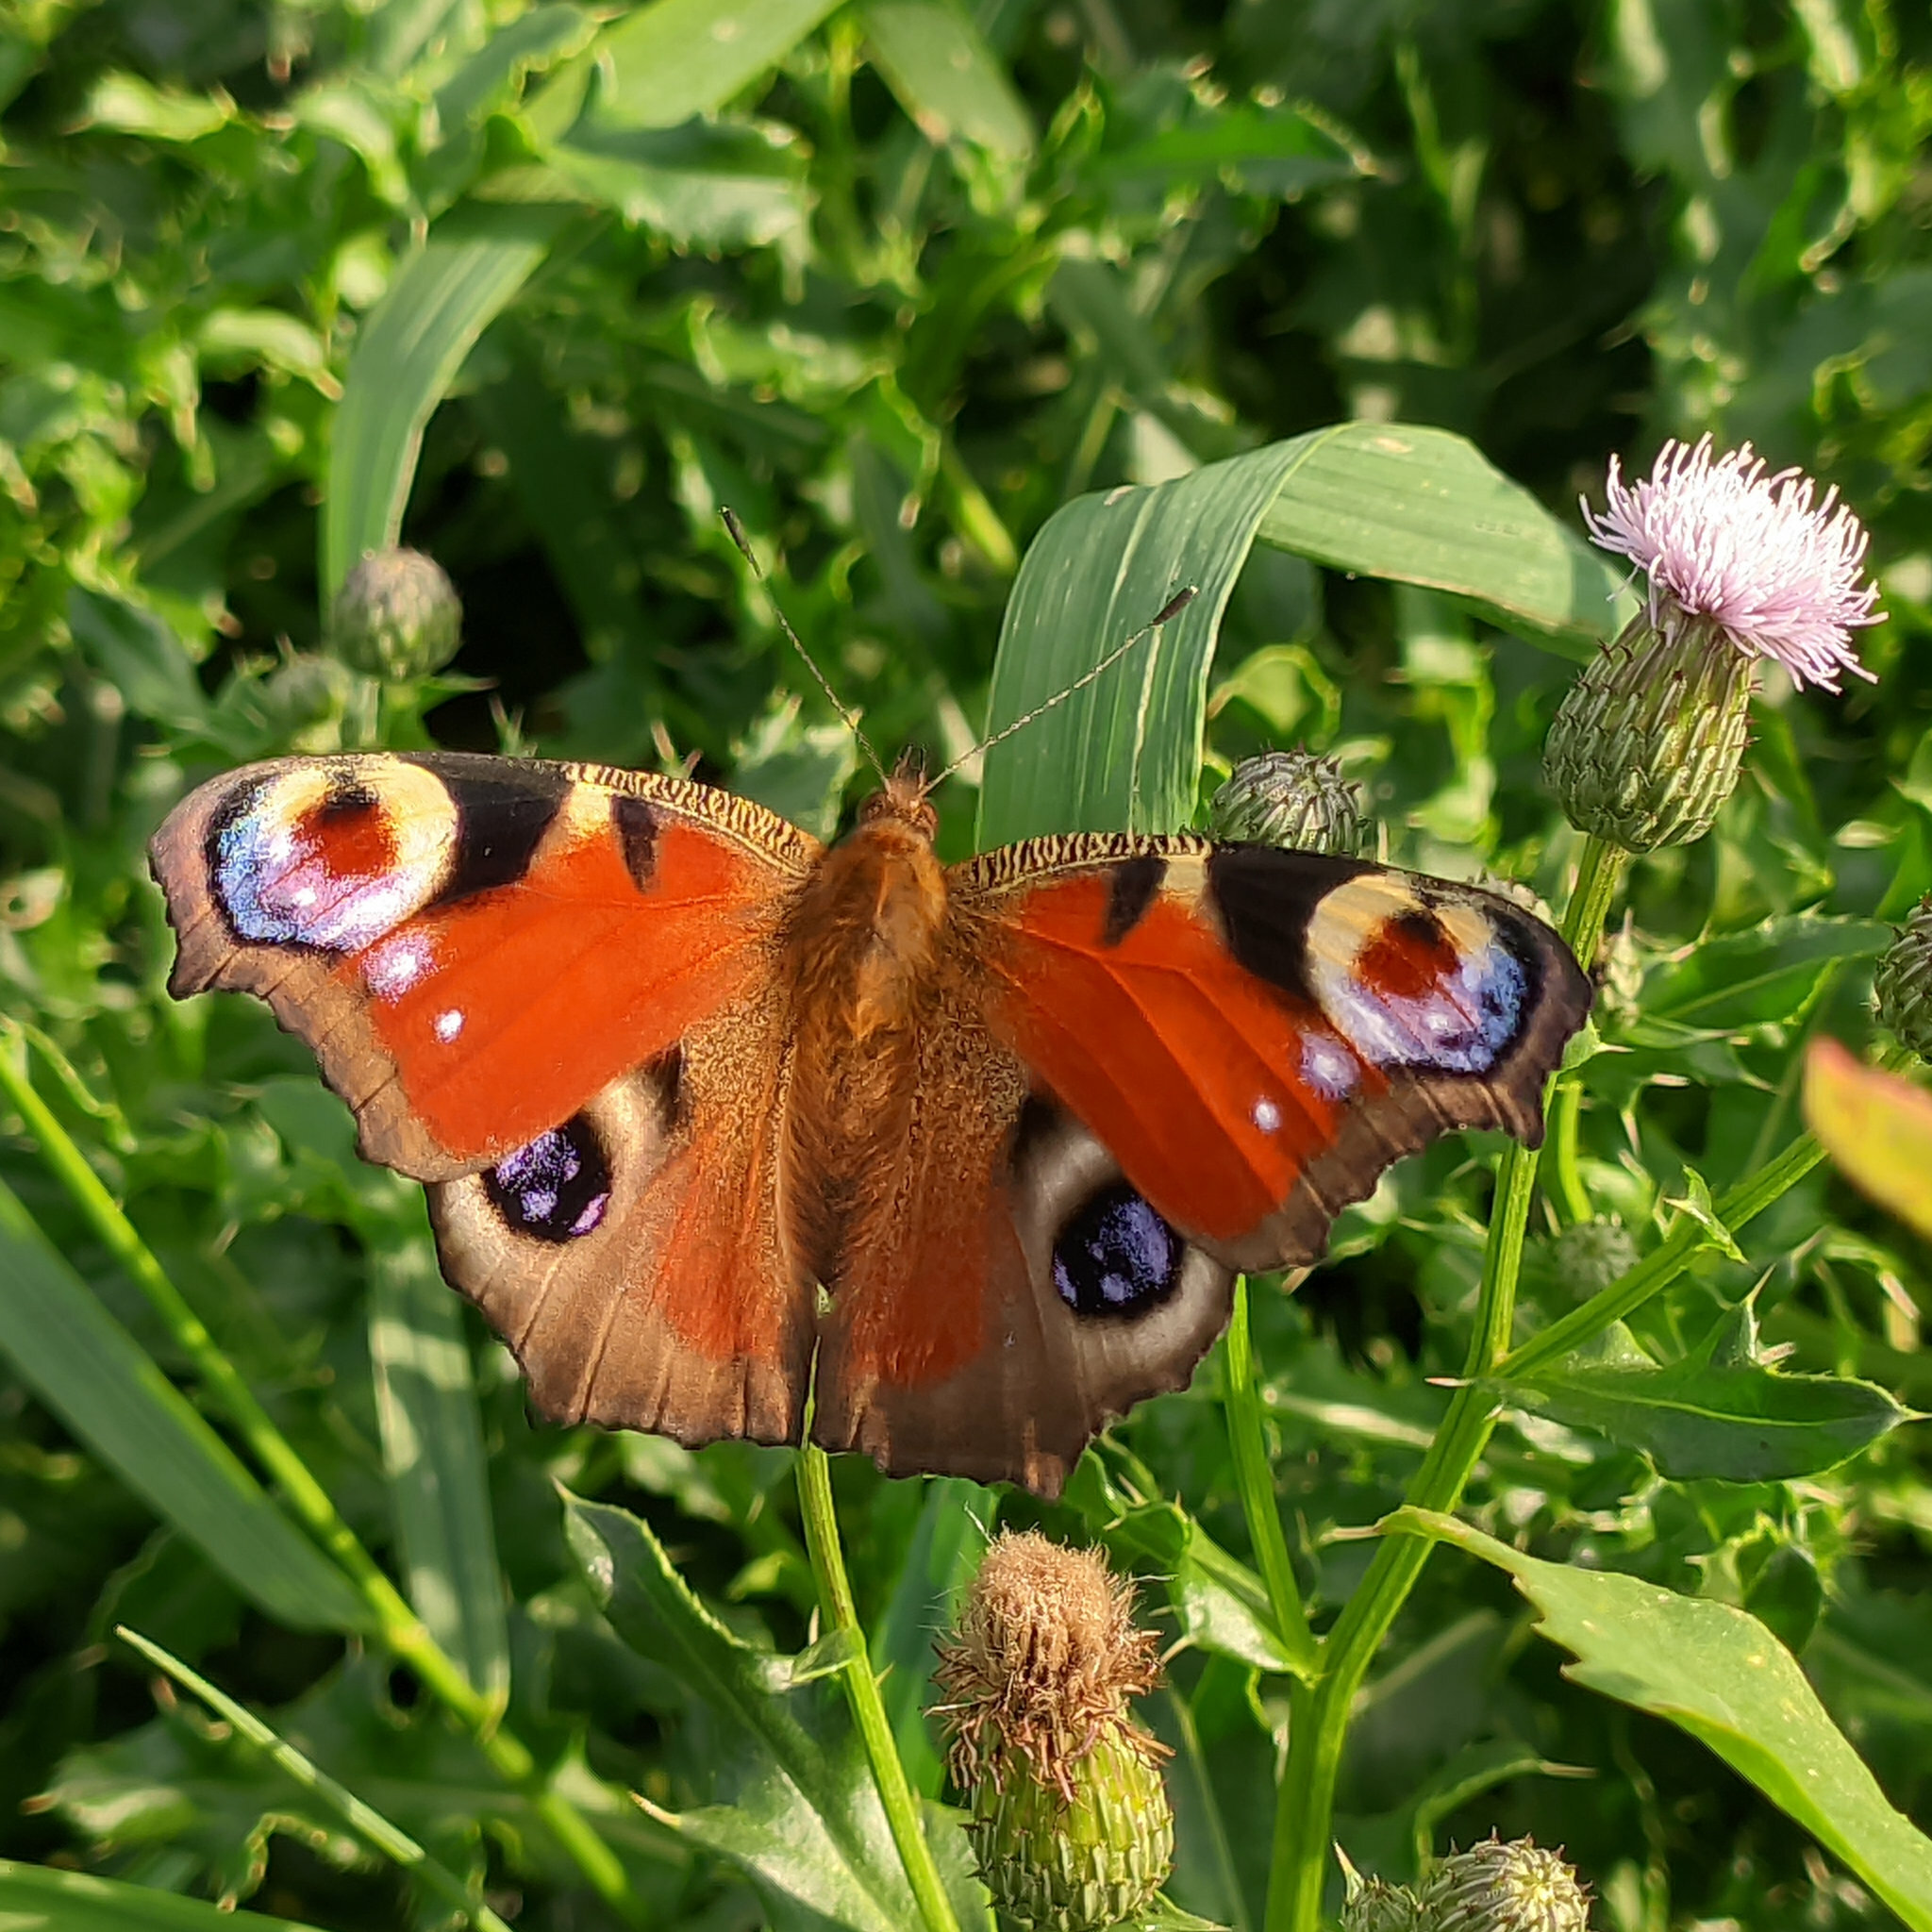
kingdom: Animalia
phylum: Arthropoda
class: Insecta
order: Lepidoptera
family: Nymphalidae
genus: Aglais
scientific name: Aglais io
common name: Peacock
